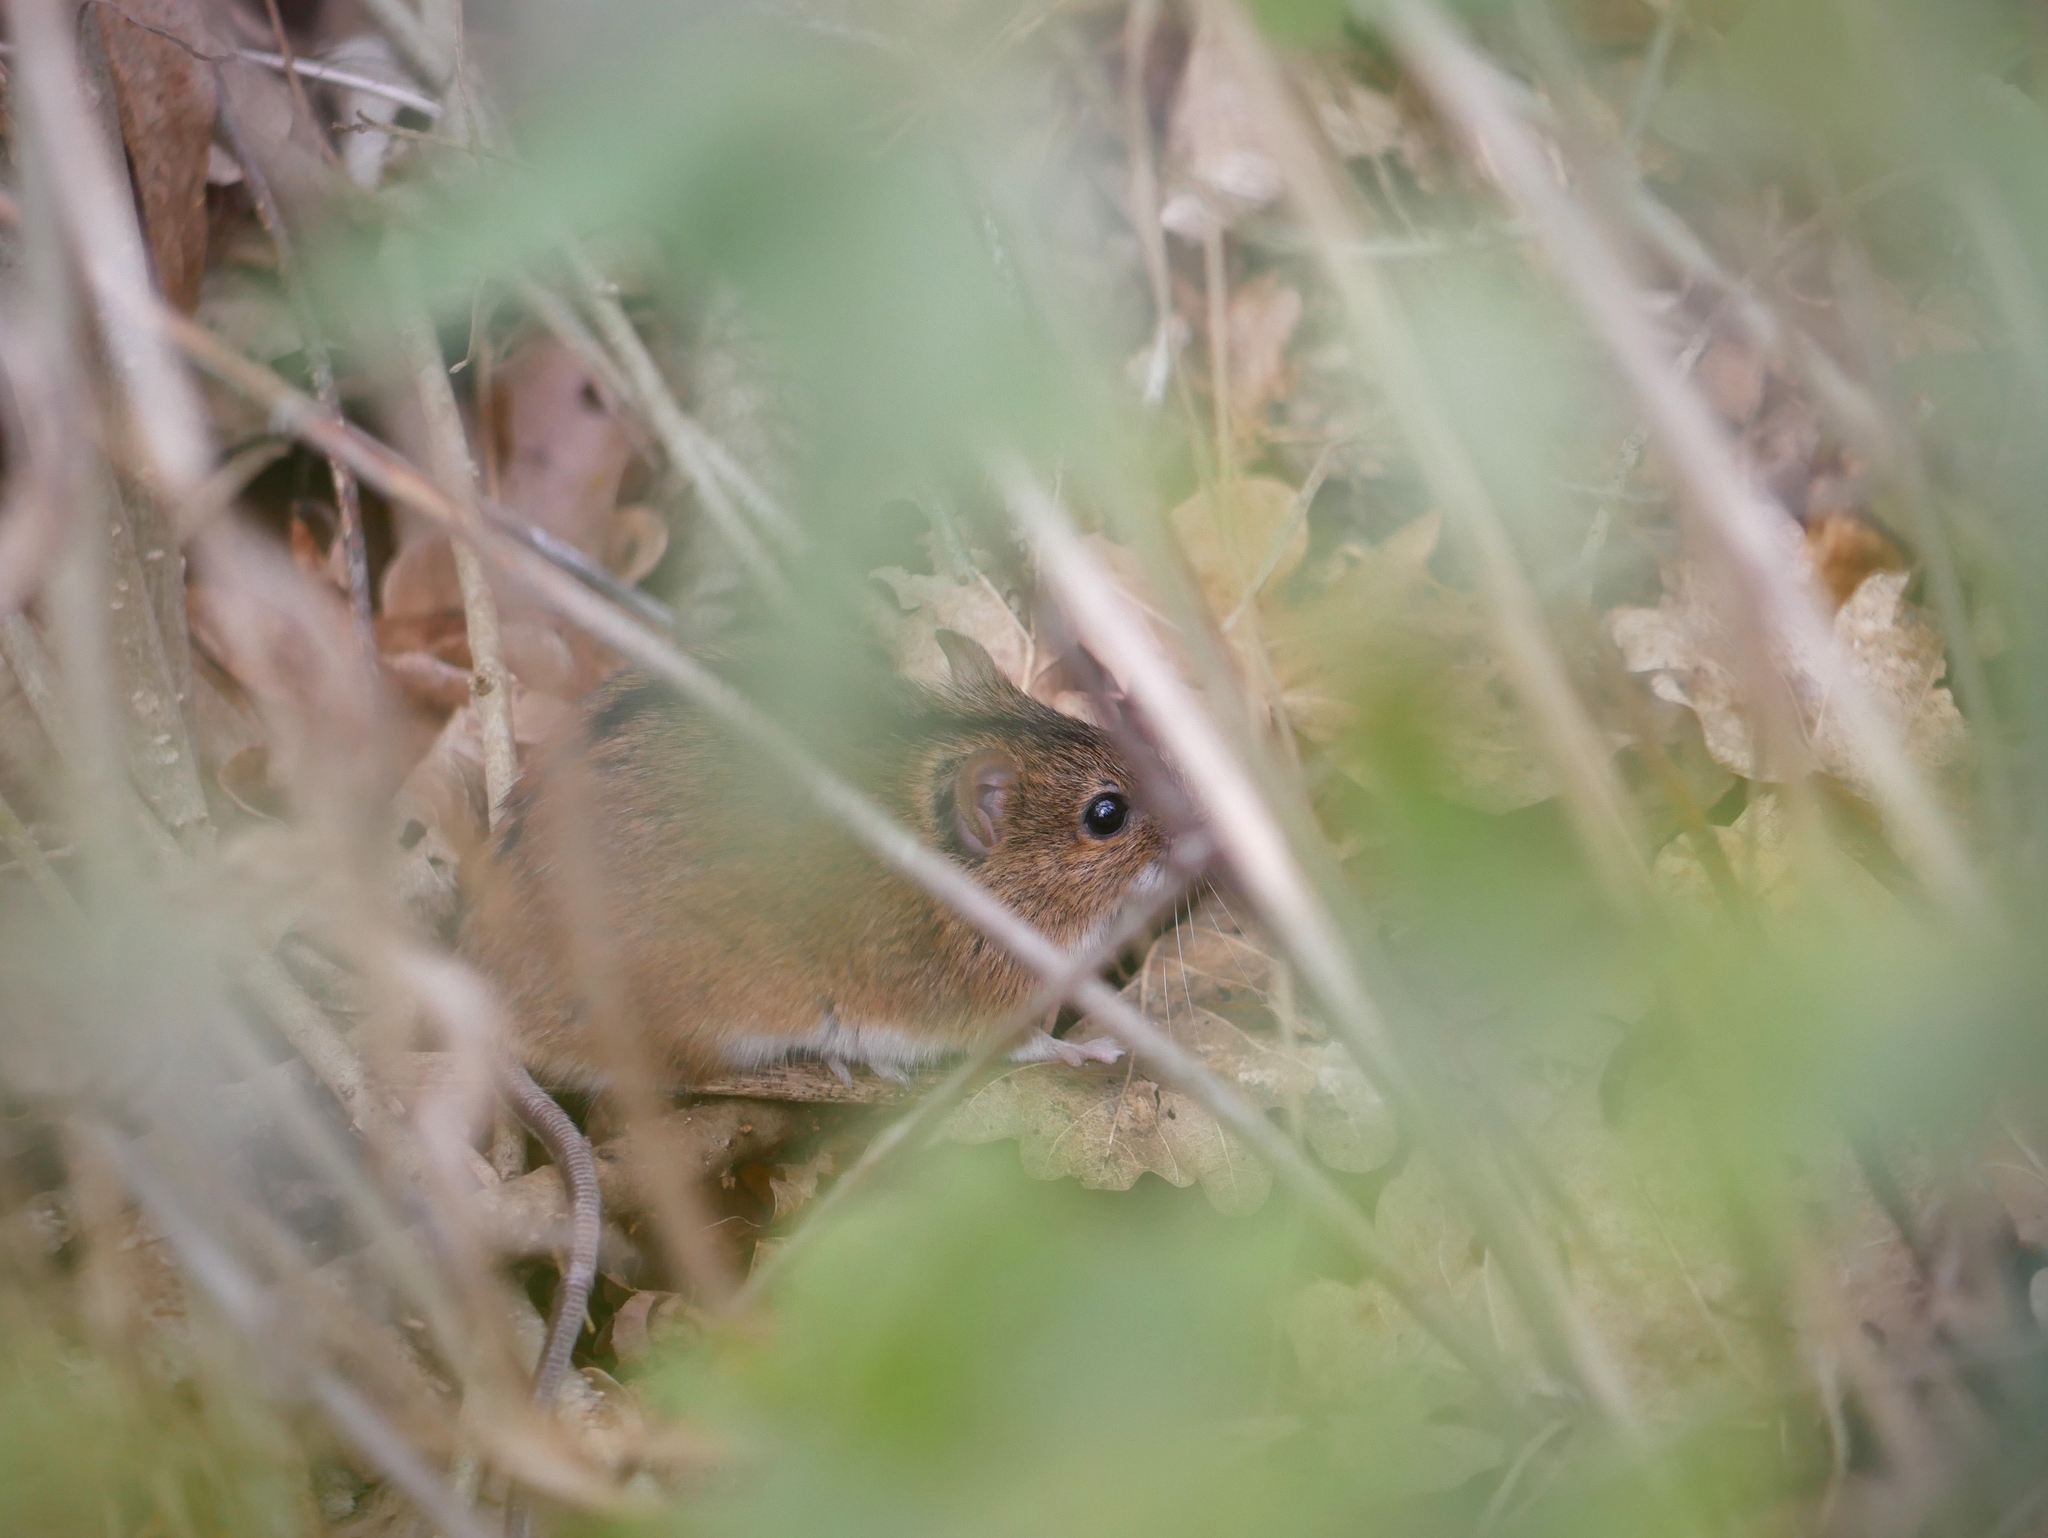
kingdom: Animalia
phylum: Chordata
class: Mammalia
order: Rodentia
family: Muridae
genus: Apodemus
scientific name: Apodemus agrarius
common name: Striped field mouse
